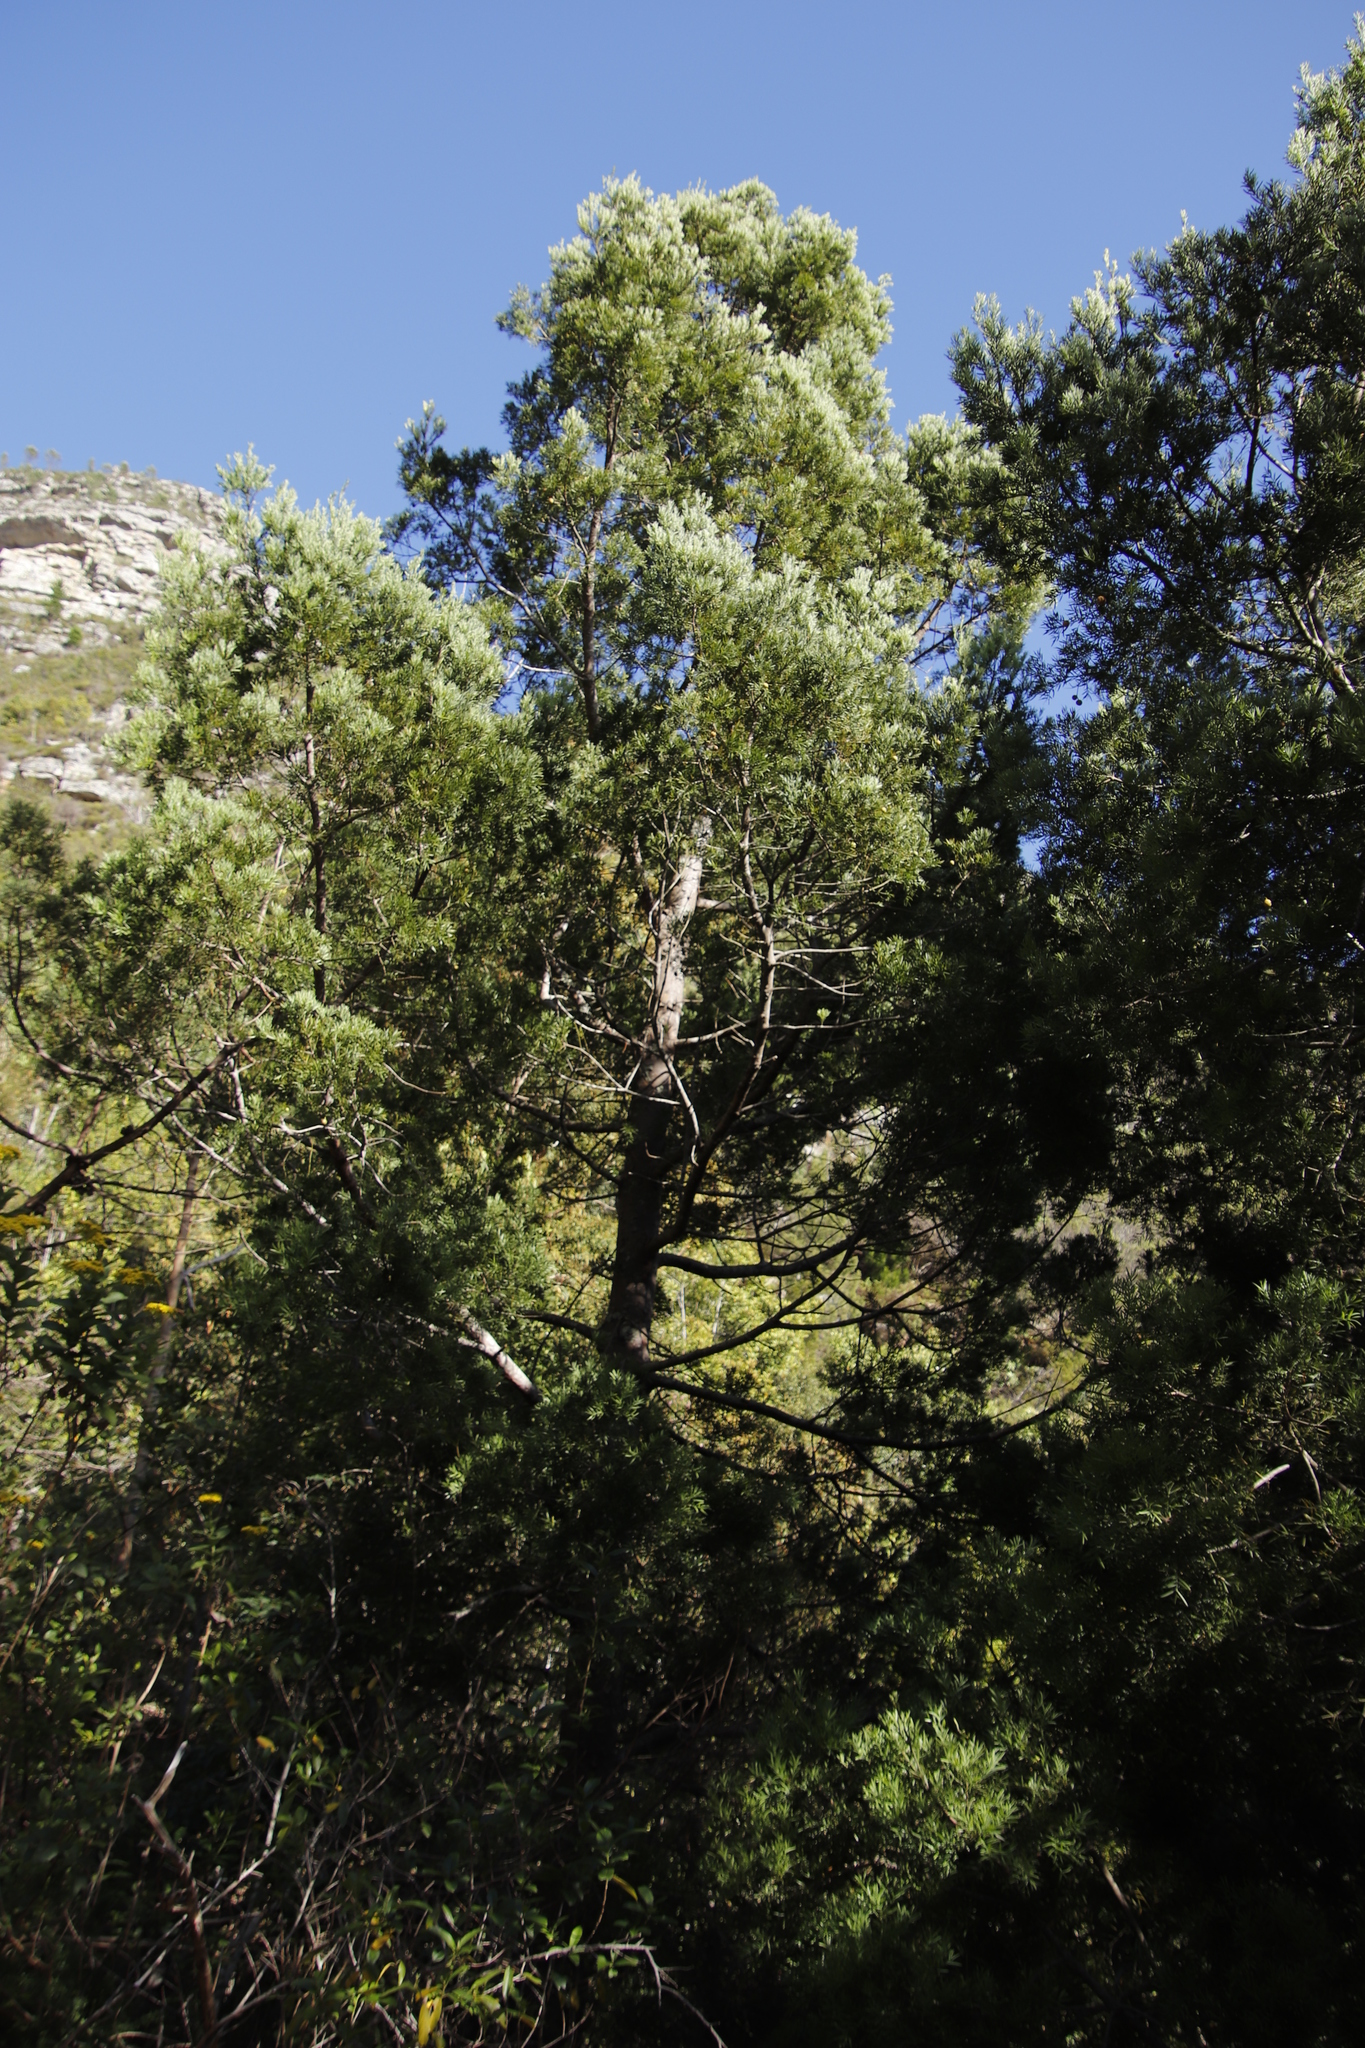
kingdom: Plantae
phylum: Tracheophyta
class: Pinopsida
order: Pinales
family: Podocarpaceae
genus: Afrocarpus
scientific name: Afrocarpus falcatus
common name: Bastard yellowwood
